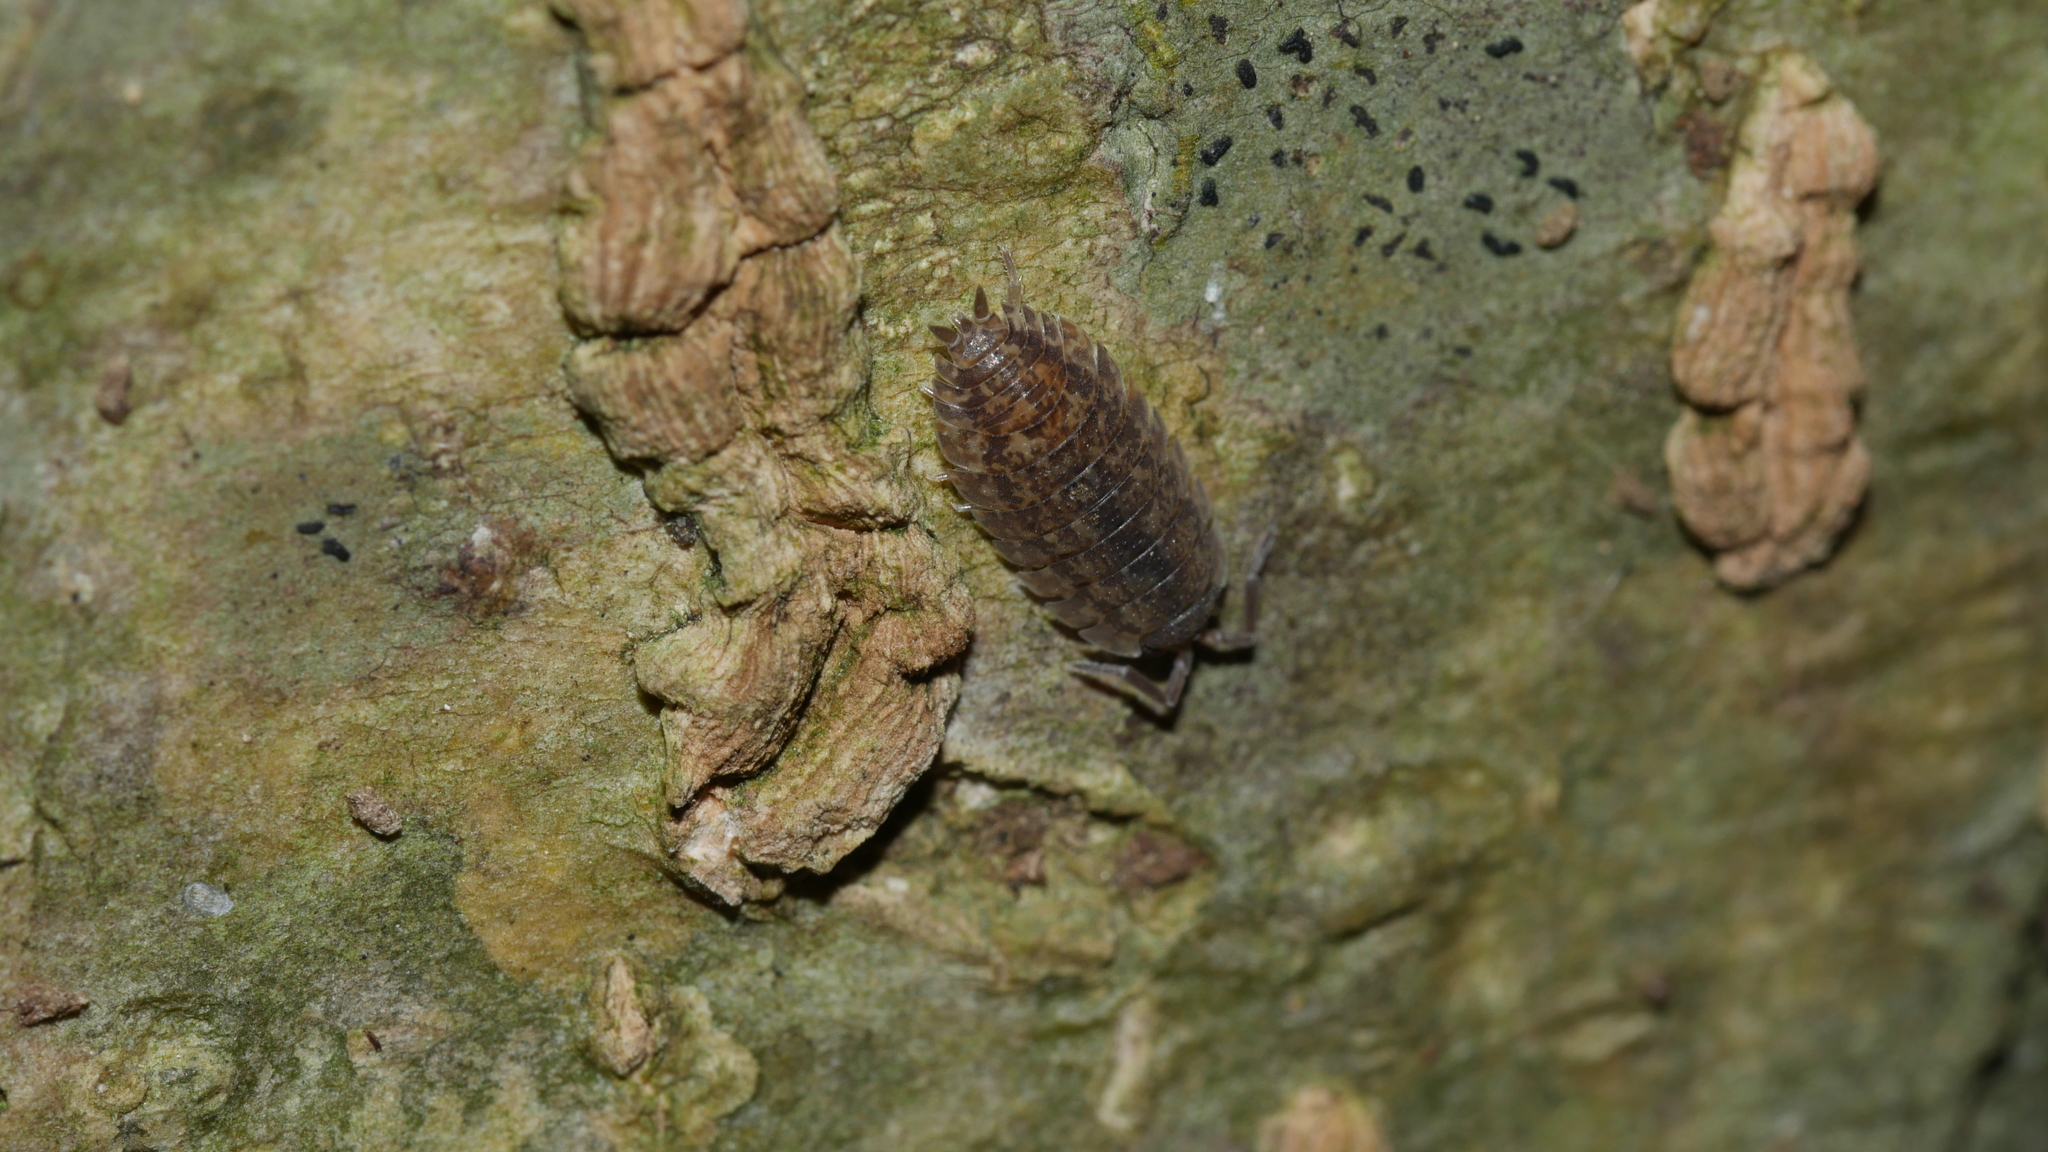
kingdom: Animalia
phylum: Arthropoda
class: Malacostraca
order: Isopoda
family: Porcellionidae
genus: Porcellio
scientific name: Porcellio scaber
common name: Common rough woodlouse
